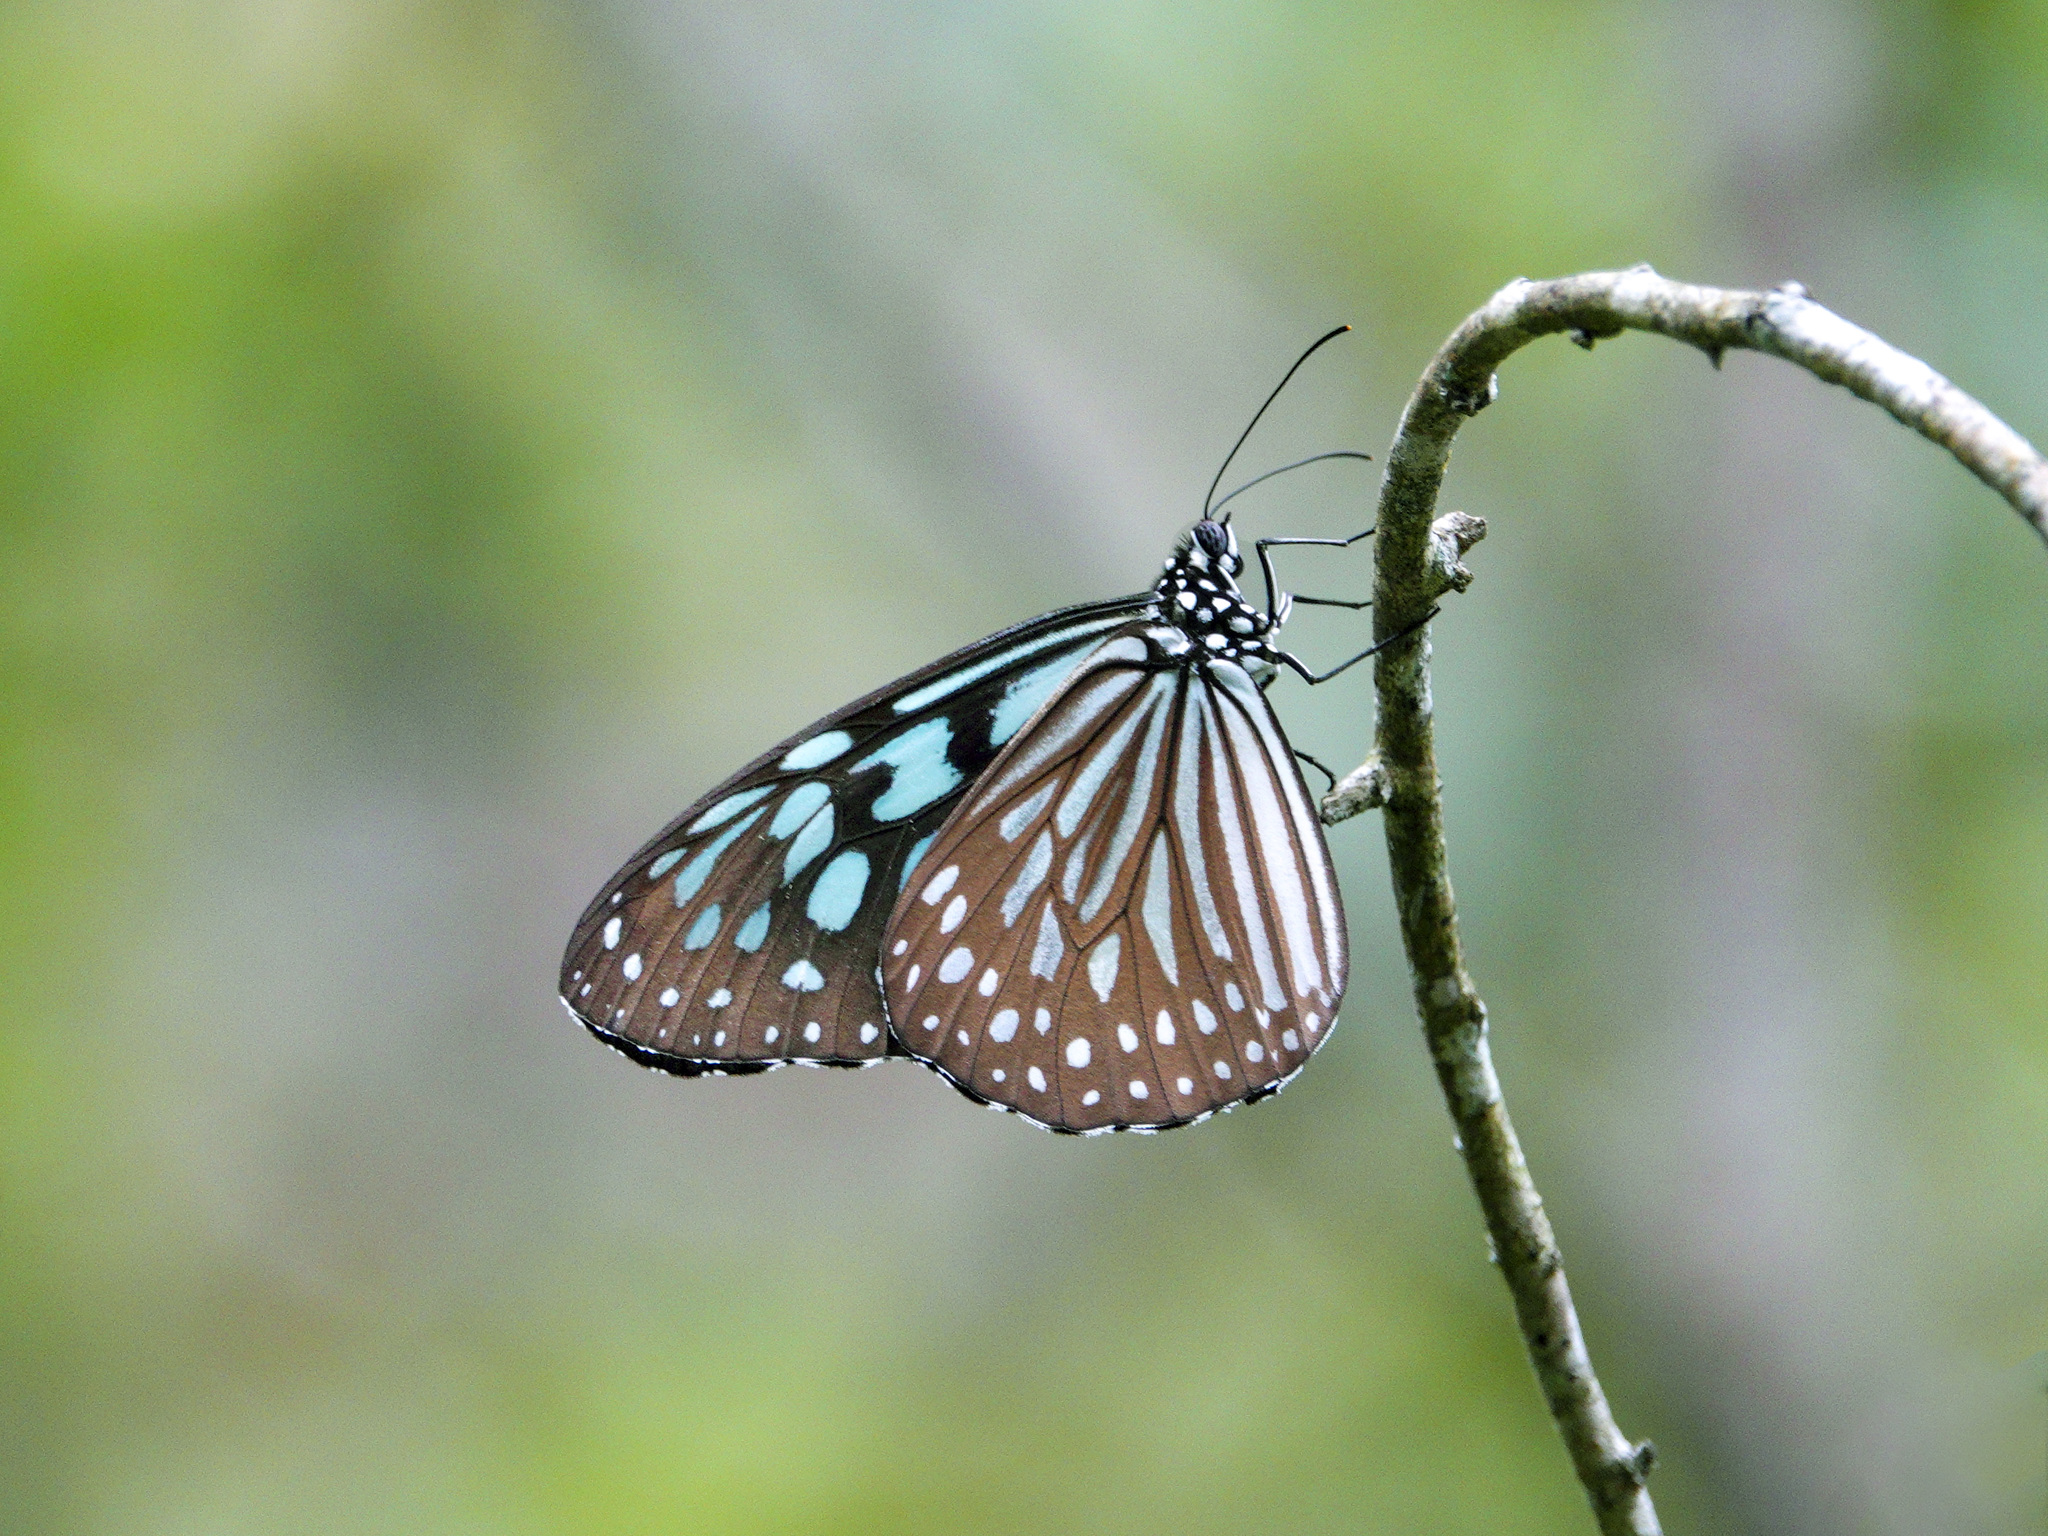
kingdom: Animalia
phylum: Arthropoda
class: Insecta
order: Lepidoptera
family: Nymphalidae
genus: Ideopsis
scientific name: Ideopsis similis
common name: Ceylon blue glassy tiger
